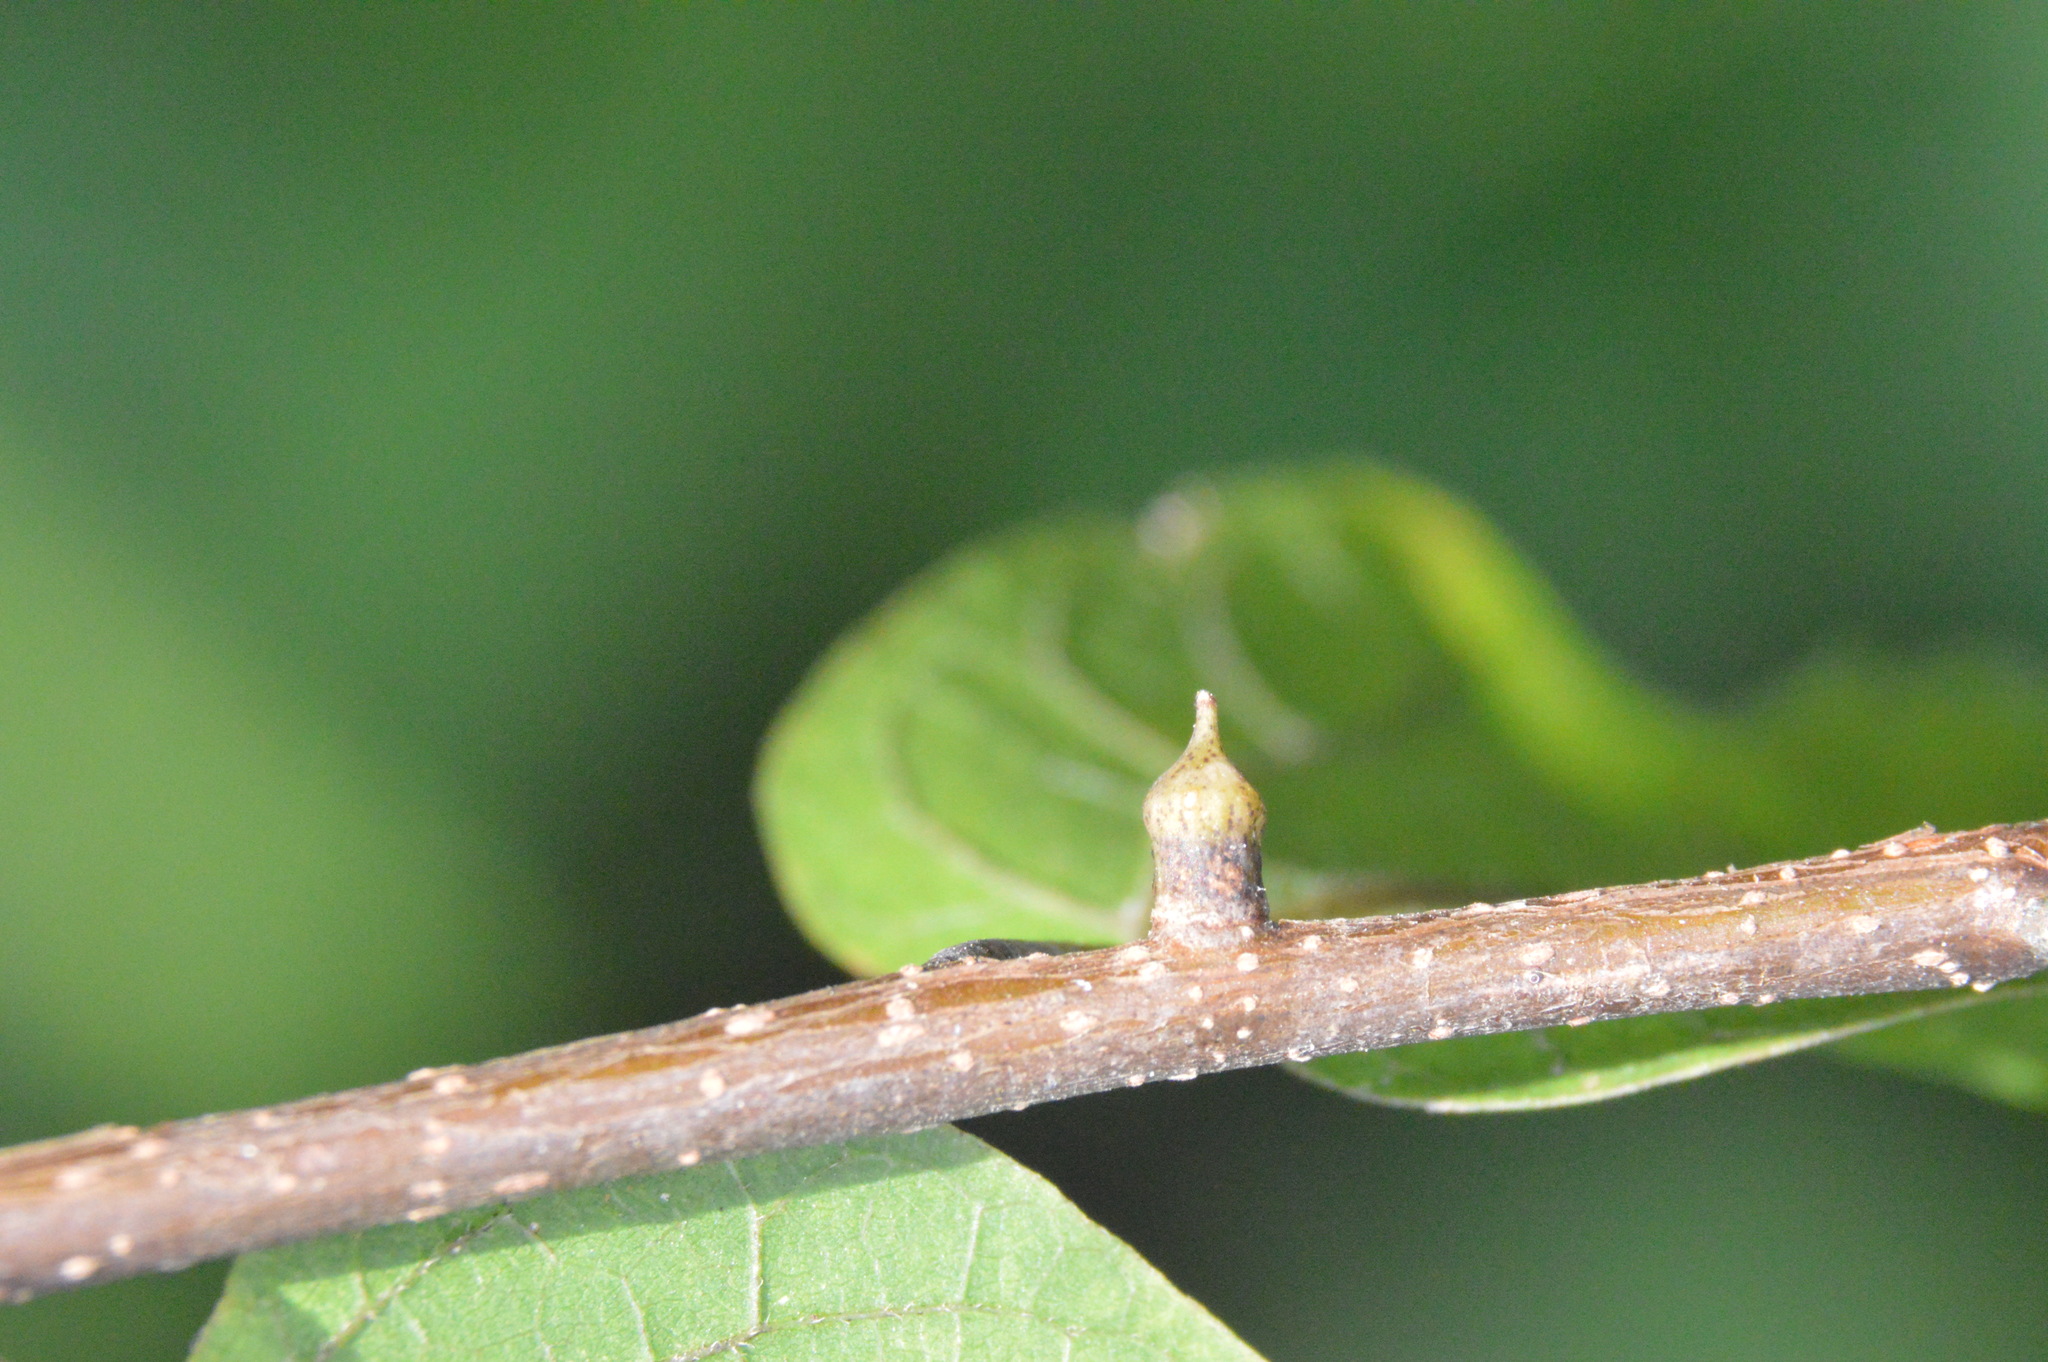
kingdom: Animalia
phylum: Arthropoda
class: Insecta
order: Diptera
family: Cecidomyiidae
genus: Celticecis
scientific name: Celticecis ramicola
